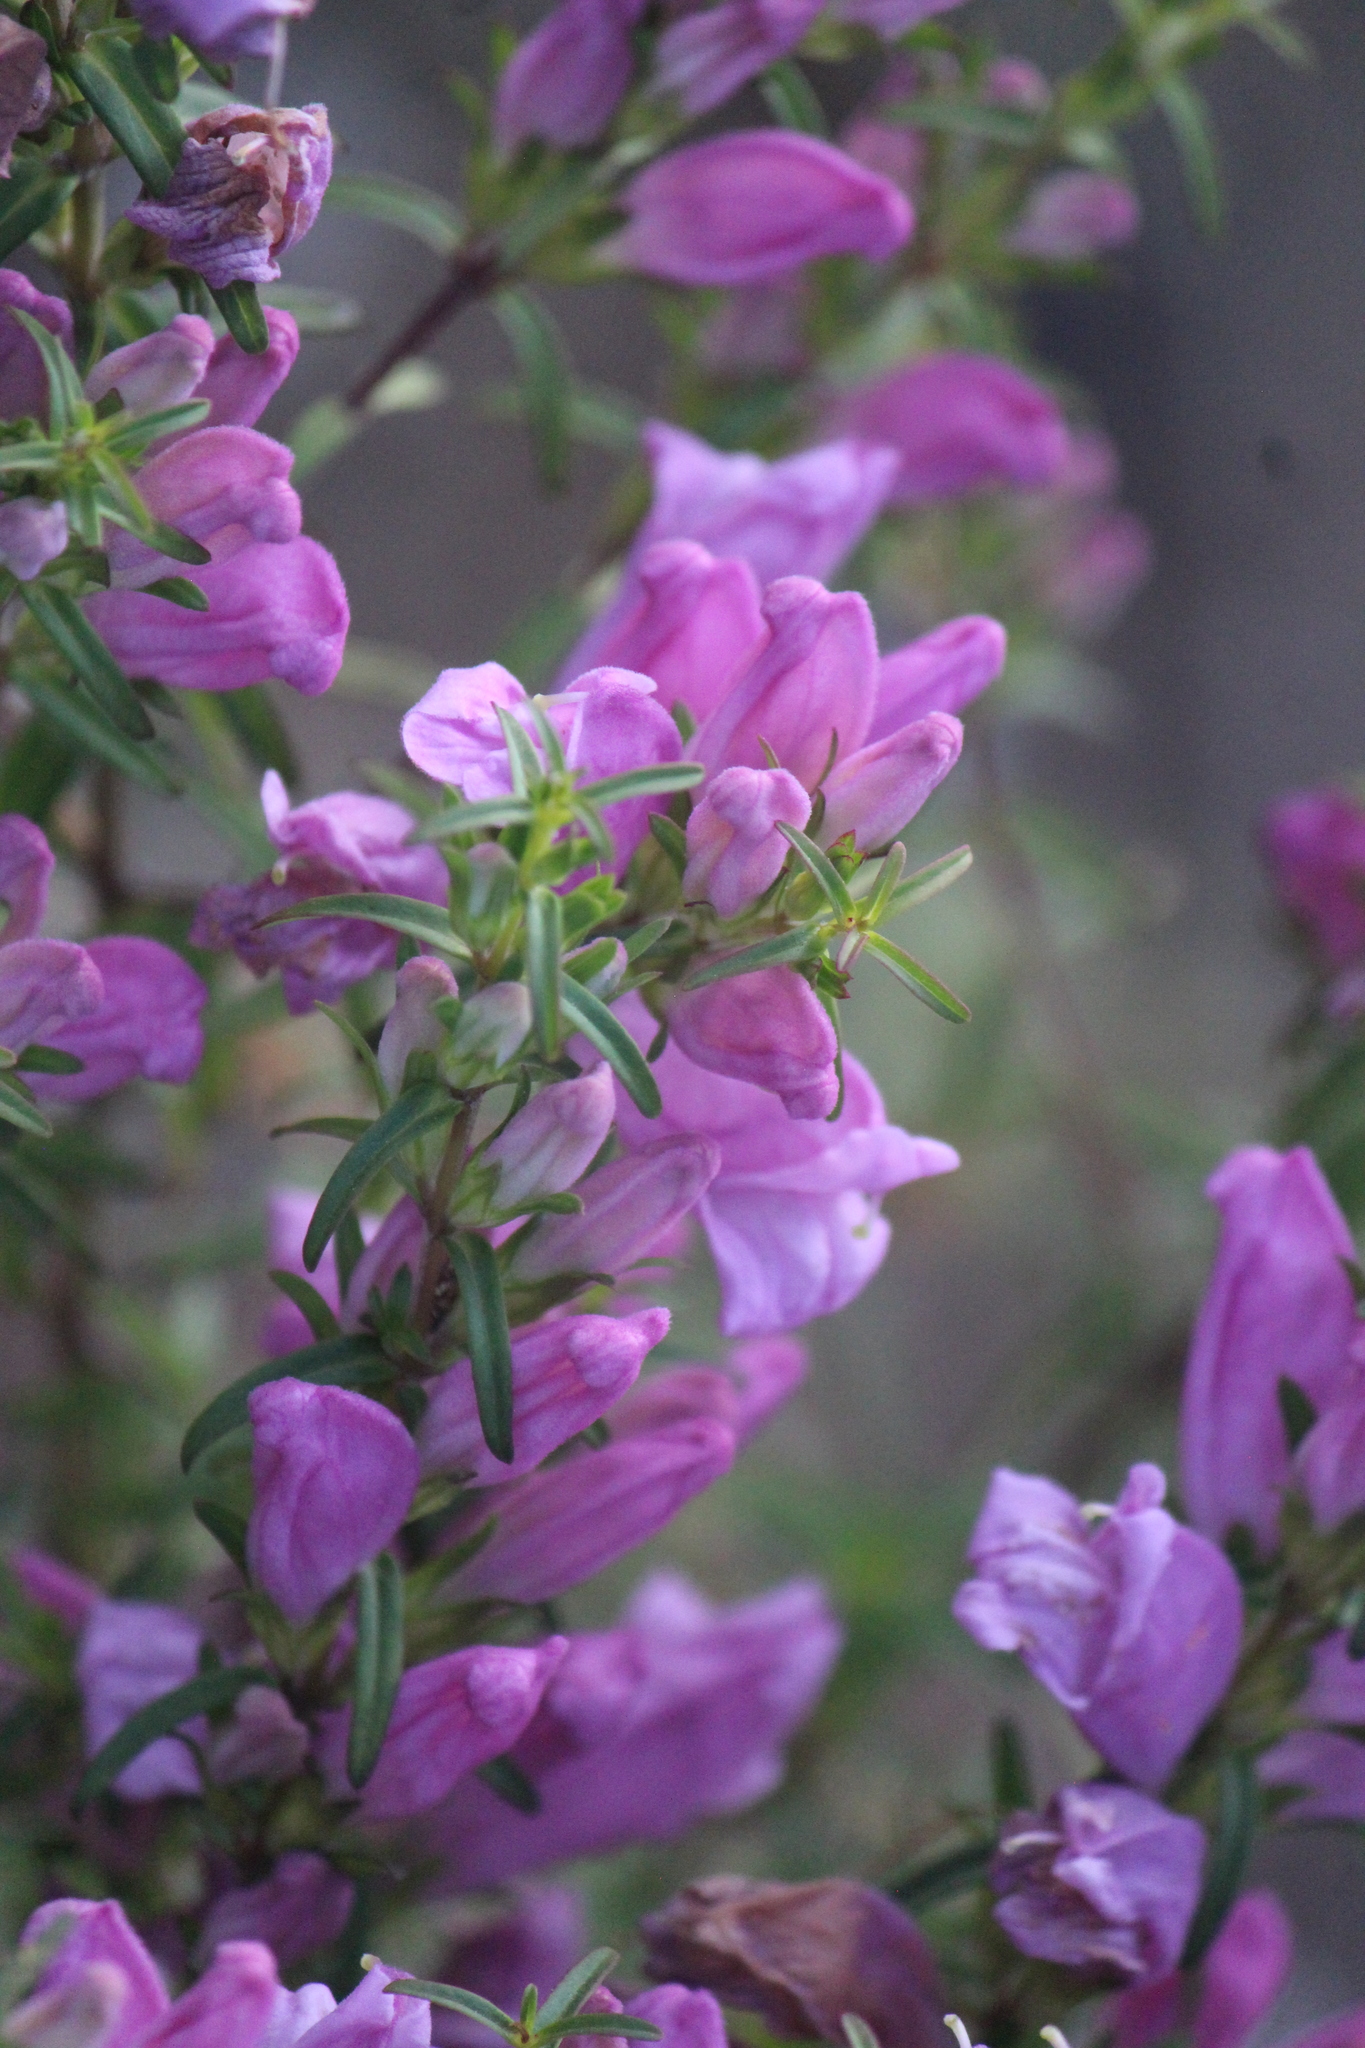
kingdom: Plantae
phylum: Tracheophyta
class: Magnoliopsida
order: Lamiales
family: Orobanchaceae
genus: Lamourouxia
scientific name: Lamourouxia dasyantha
